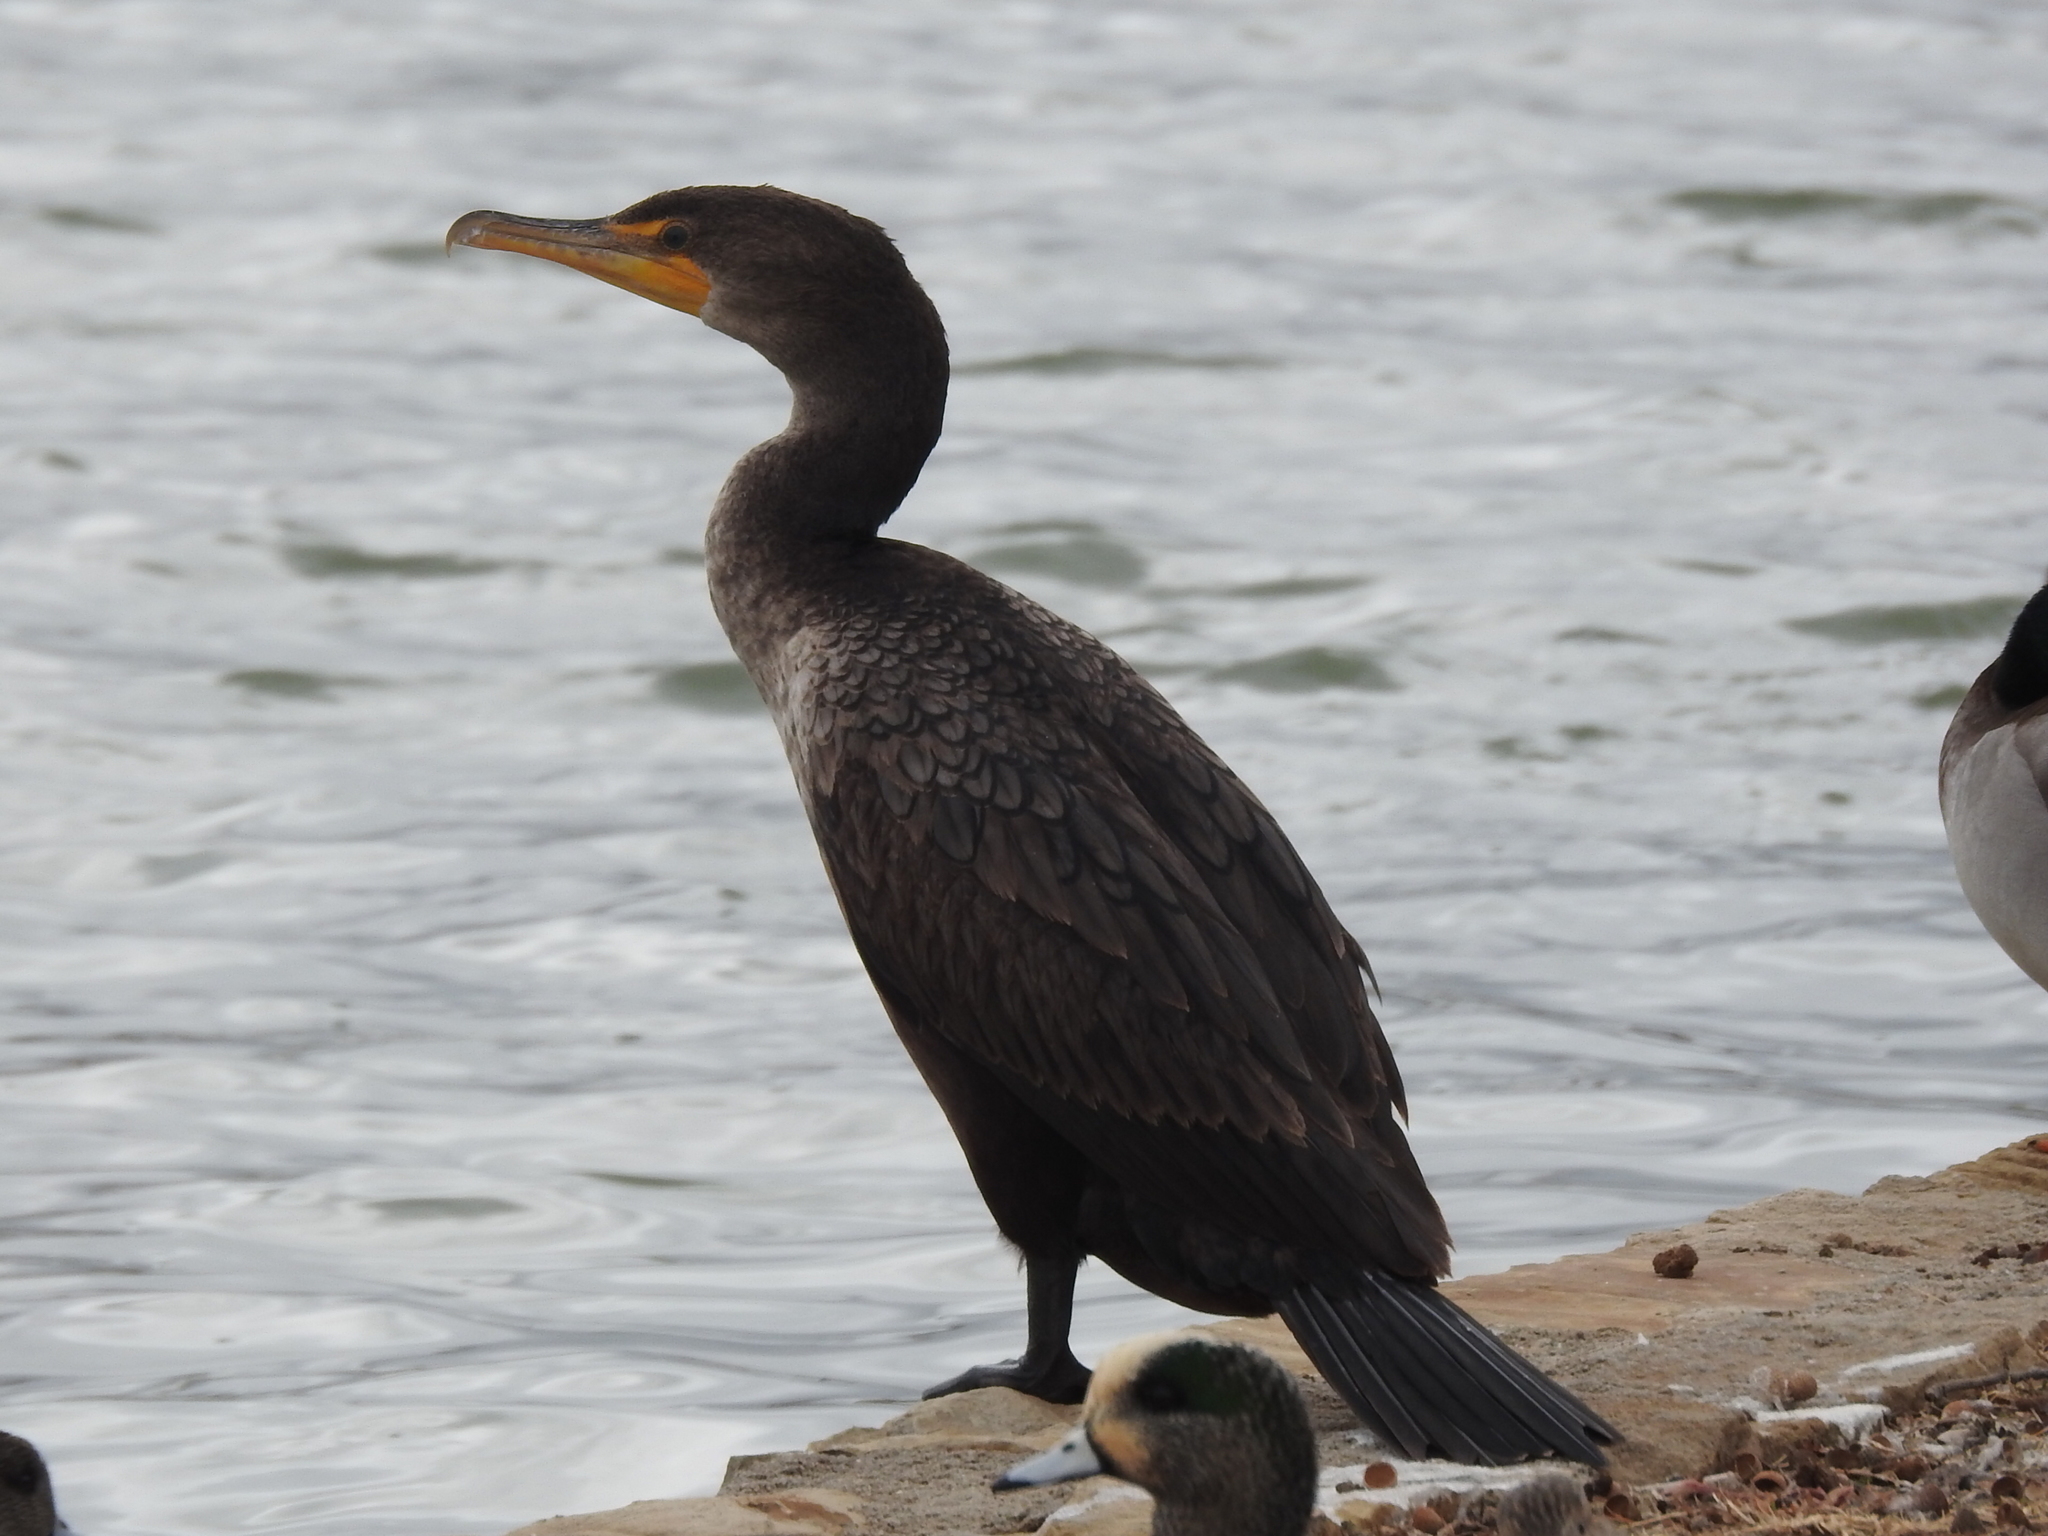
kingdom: Animalia
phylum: Chordata
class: Aves
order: Suliformes
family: Phalacrocoracidae
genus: Phalacrocorax
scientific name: Phalacrocorax auritus
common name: Double-crested cormorant
